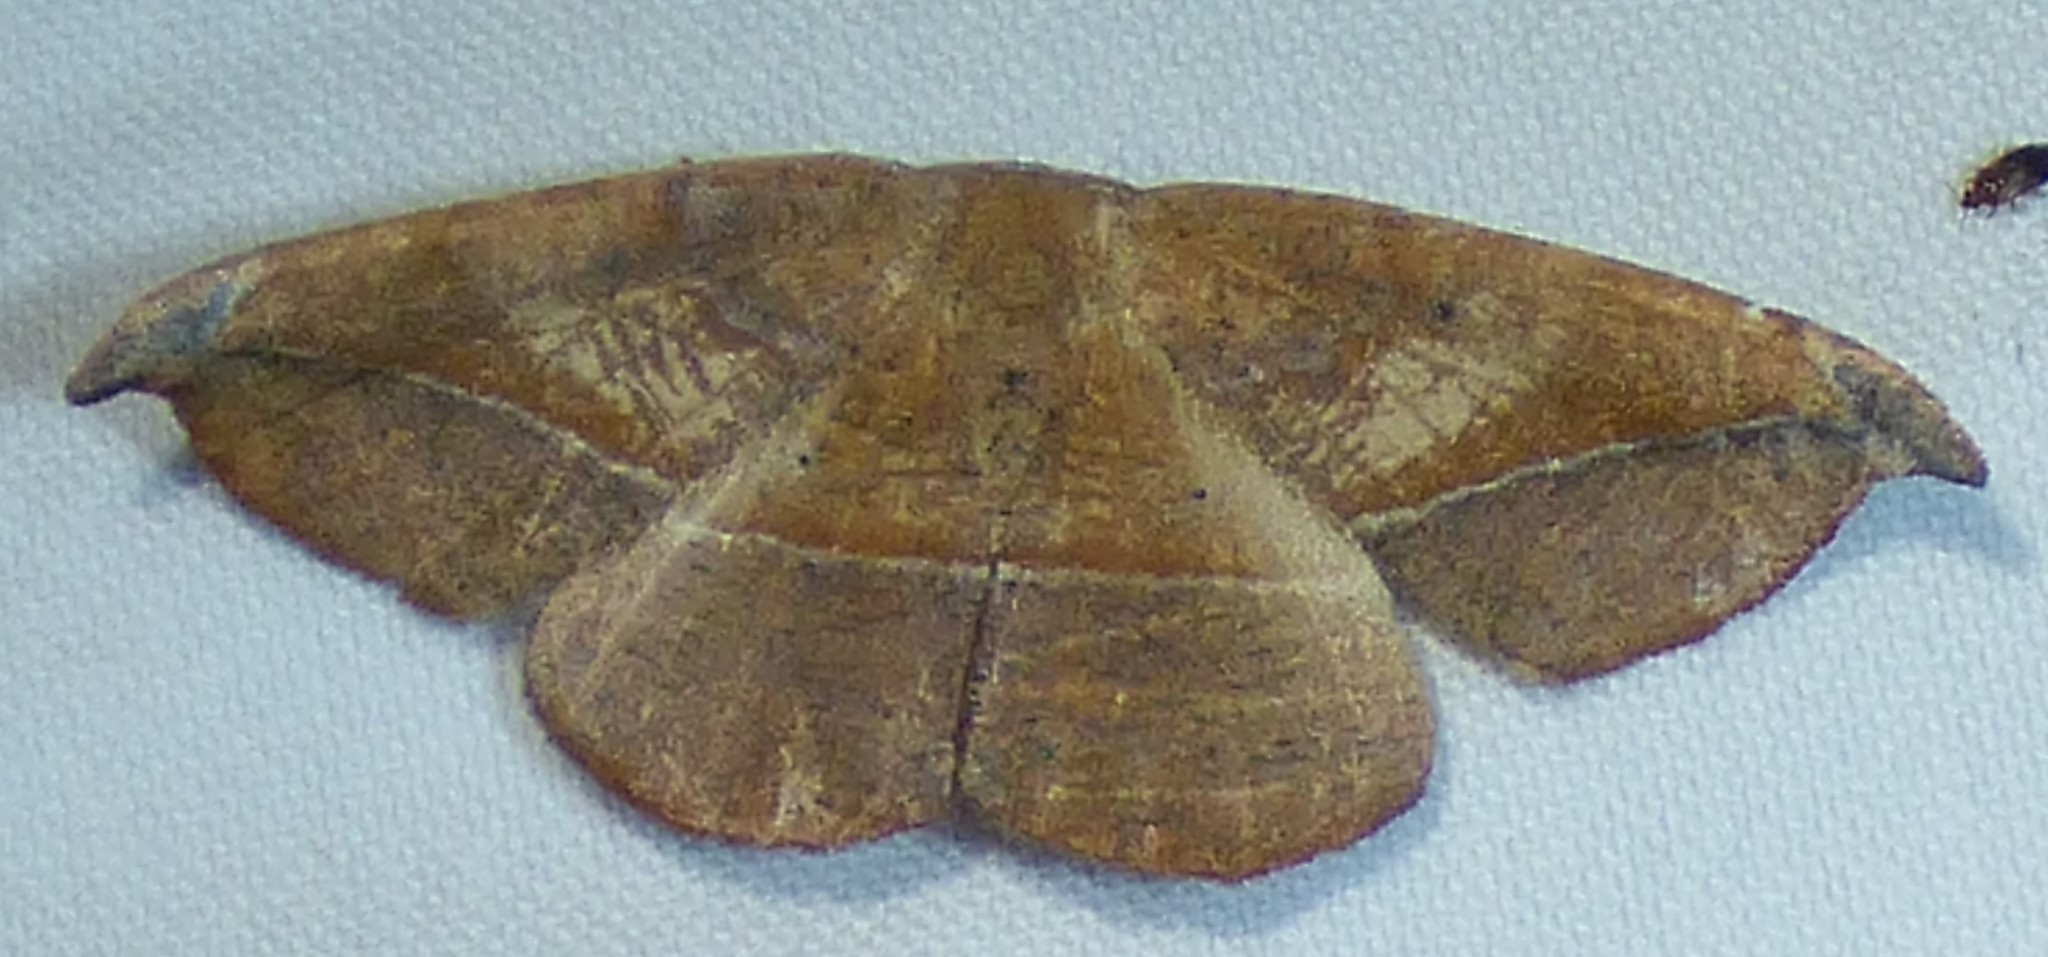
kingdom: Animalia
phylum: Arthropoda
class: Insecta
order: Lepidoptera
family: Geometridae
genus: Patalene
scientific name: Patalene olyzonaria
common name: Juniper geometer moth
